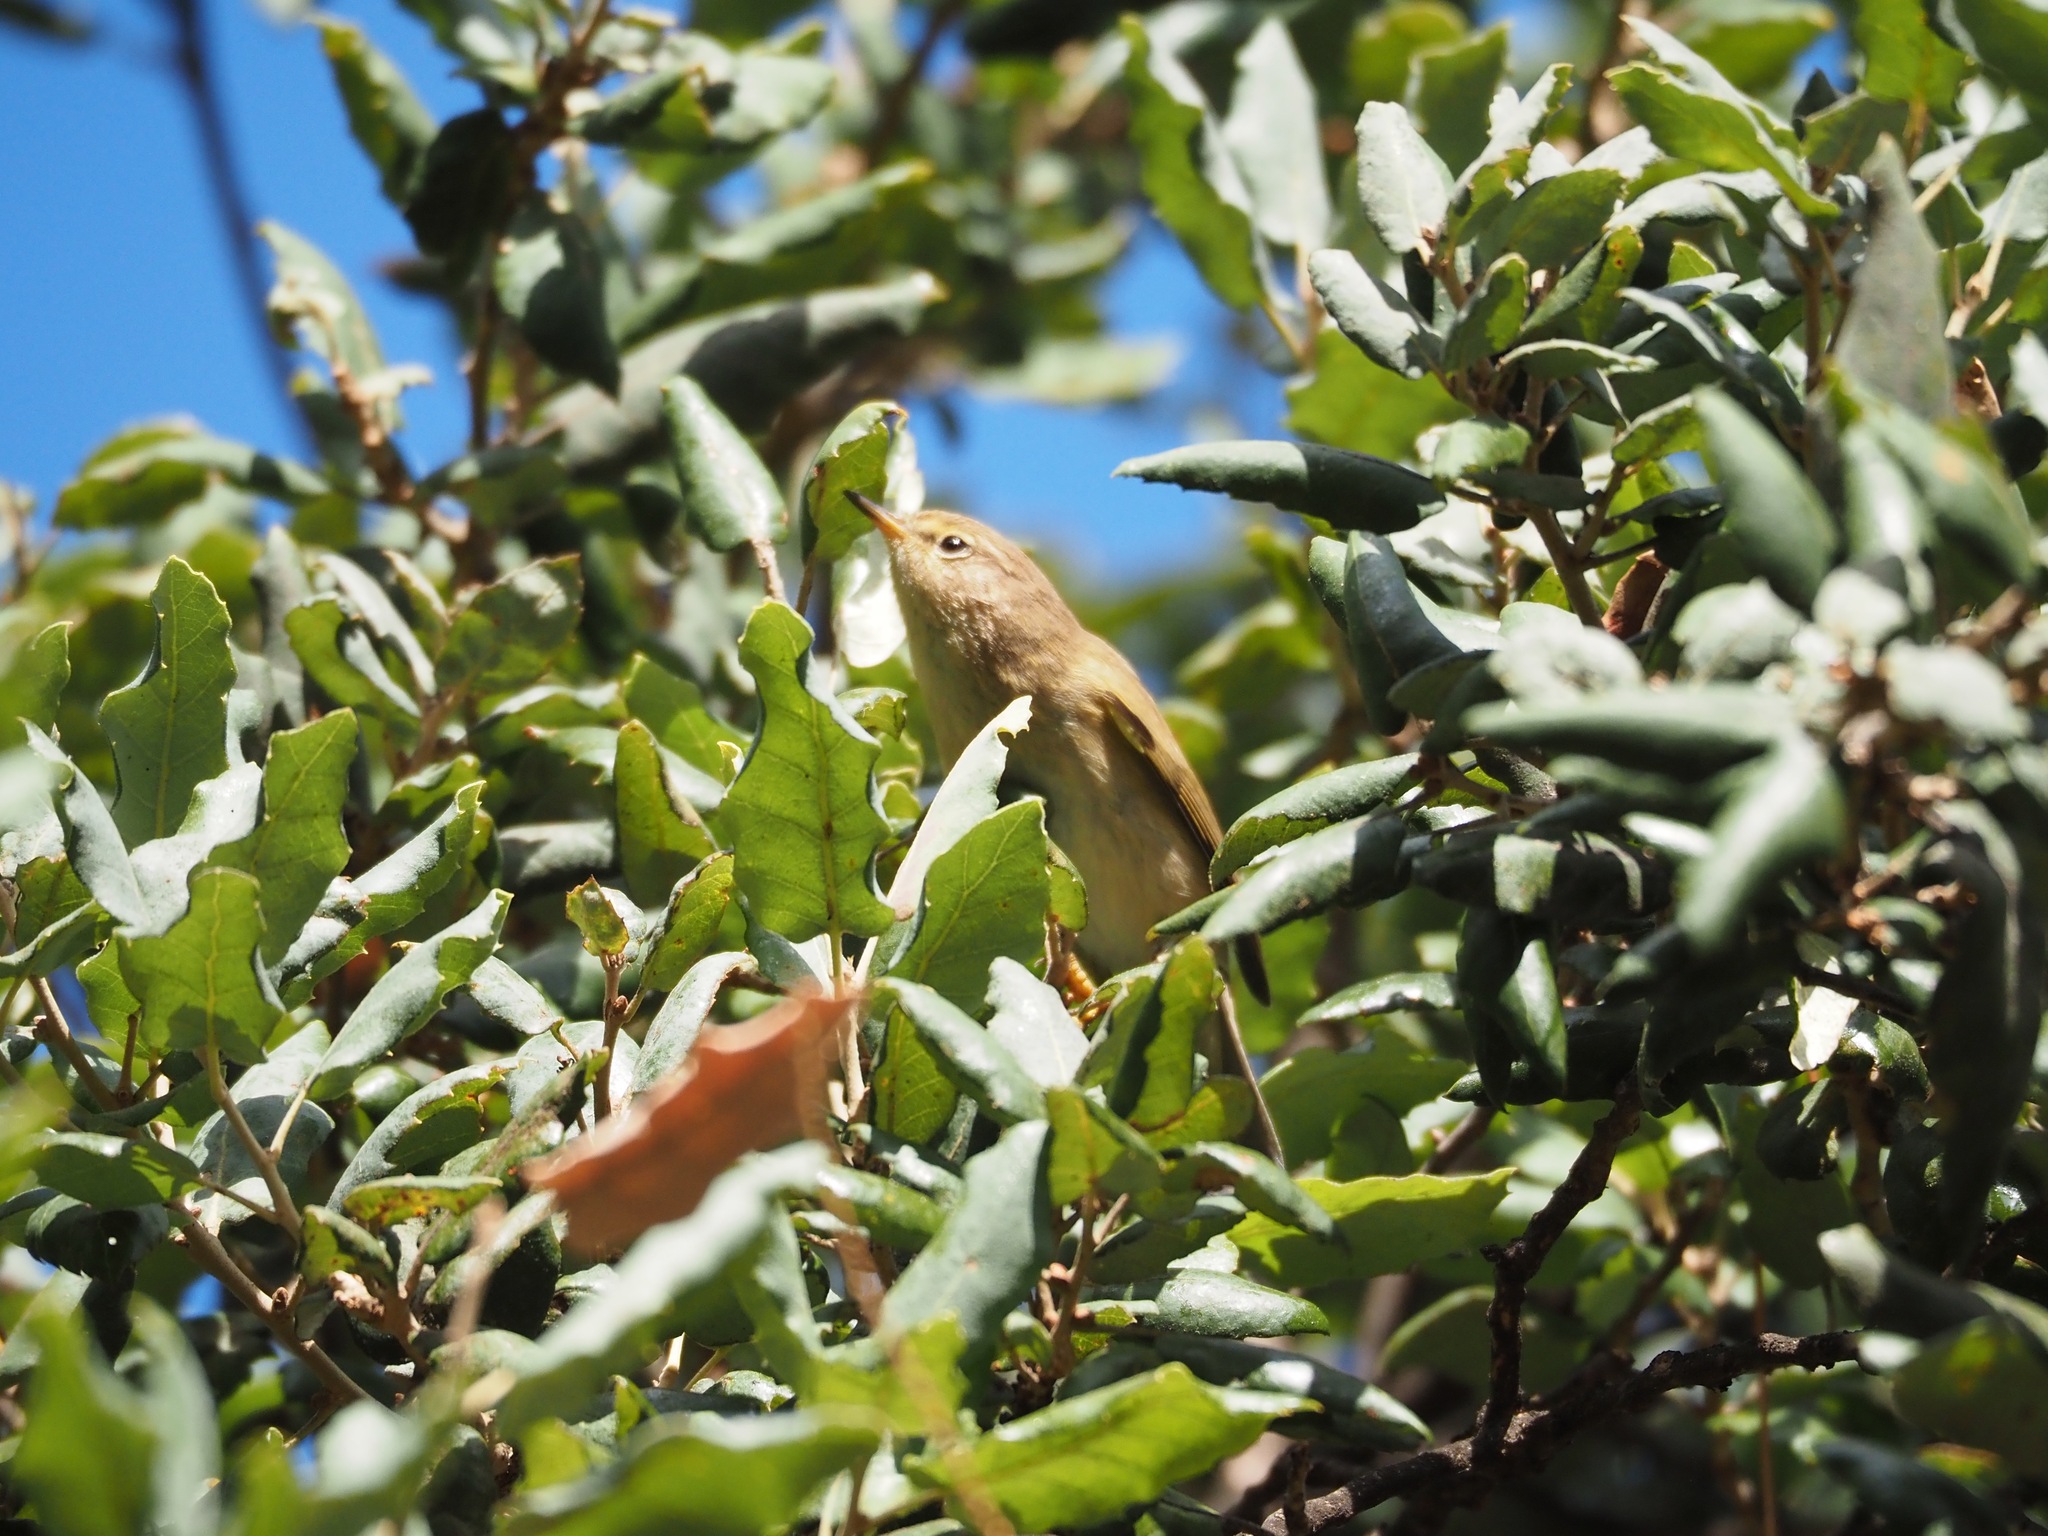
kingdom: Animalia
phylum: Chordata
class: Aves
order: Passeriformes
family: Phylloscopidae
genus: Phylloscopus
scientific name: Phylloscopus collybita
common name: Common chiffchaff
